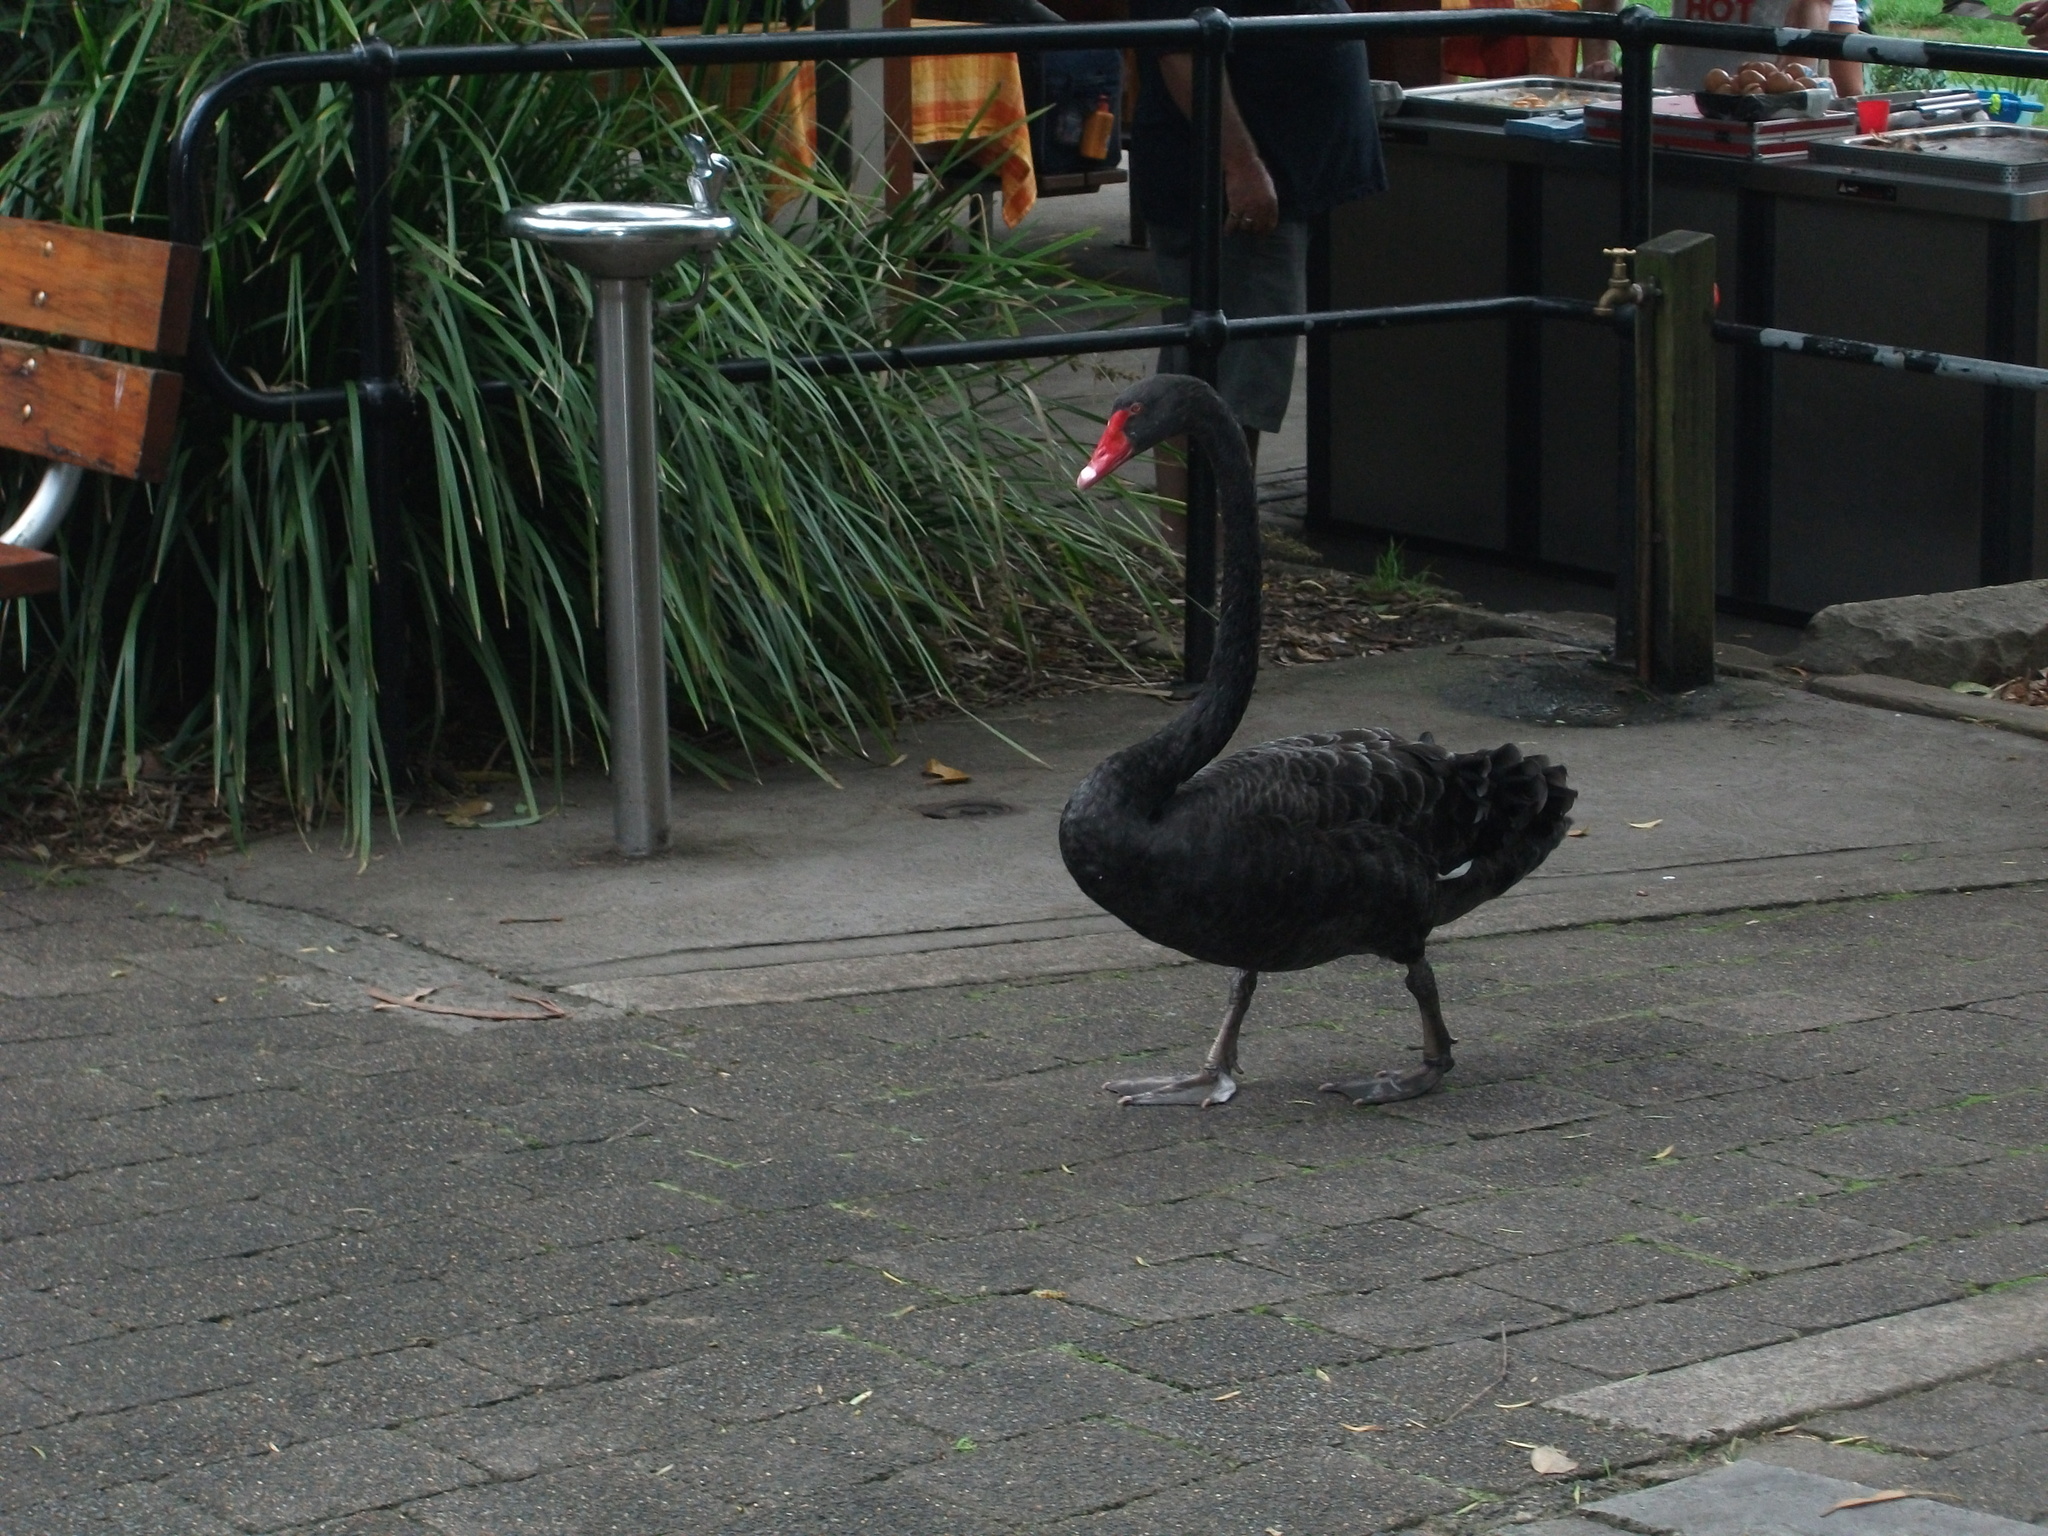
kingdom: Animalia
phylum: Chordata
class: Aves
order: Anseriformes
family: Anatidae
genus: Cygnus
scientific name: Cygnus atratus
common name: Black swan
